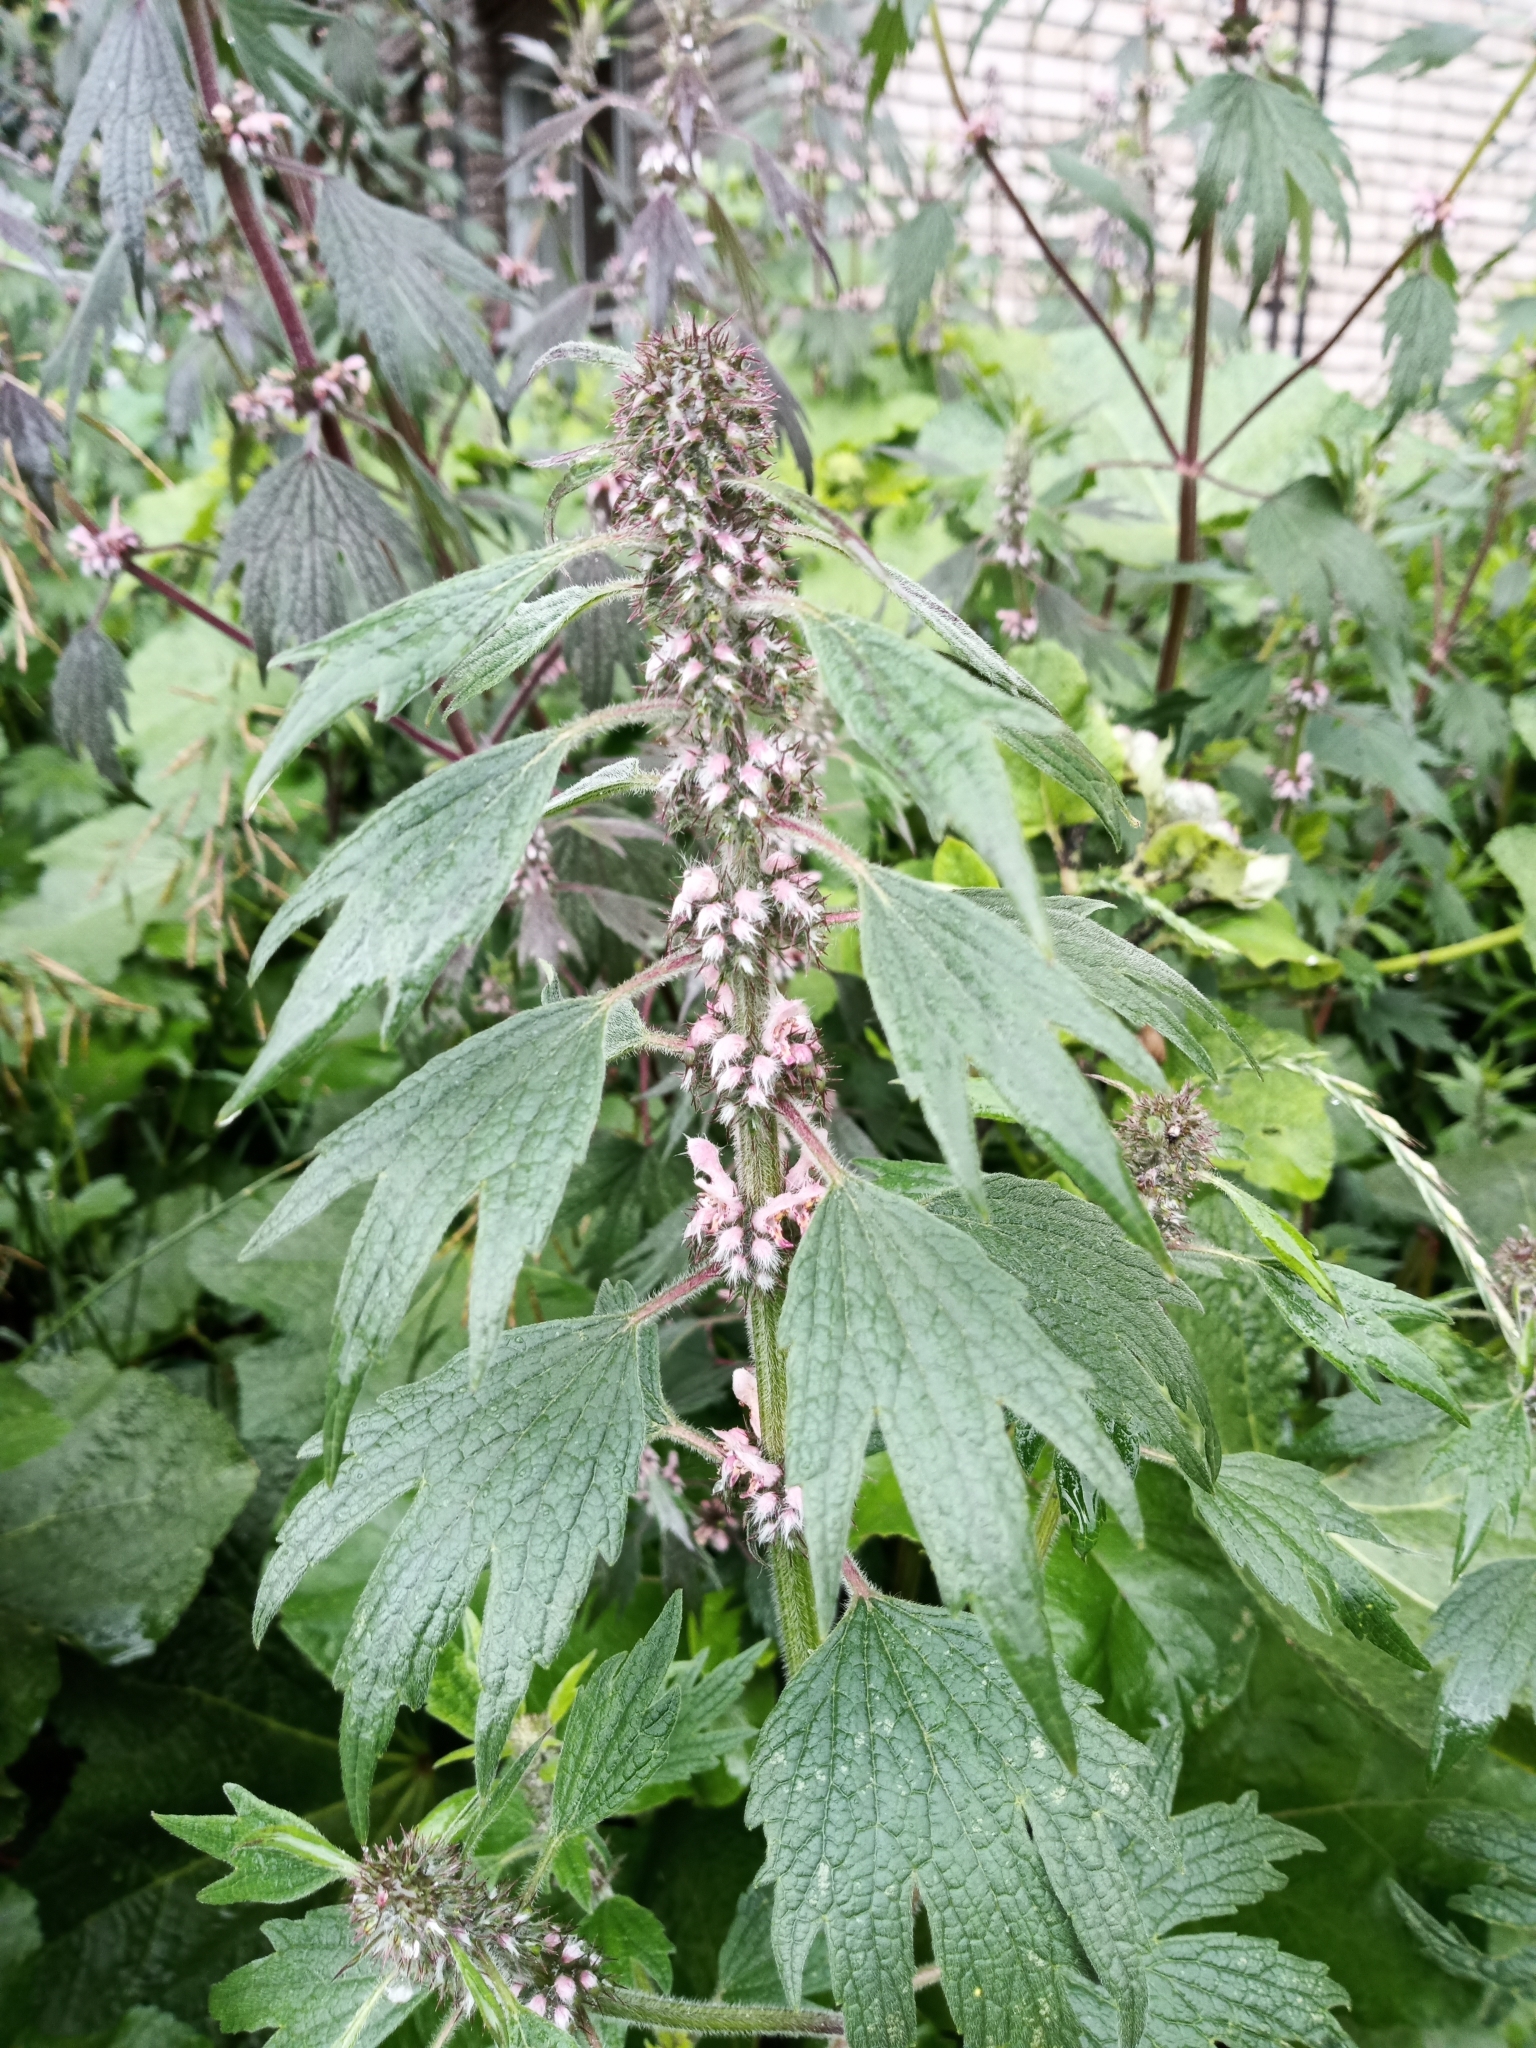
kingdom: Plantae
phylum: Tracheophyta
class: Magnoliopsida
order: Lamiales
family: Lamiaceae
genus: Leonurus
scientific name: Leonurus quinquelobatus
